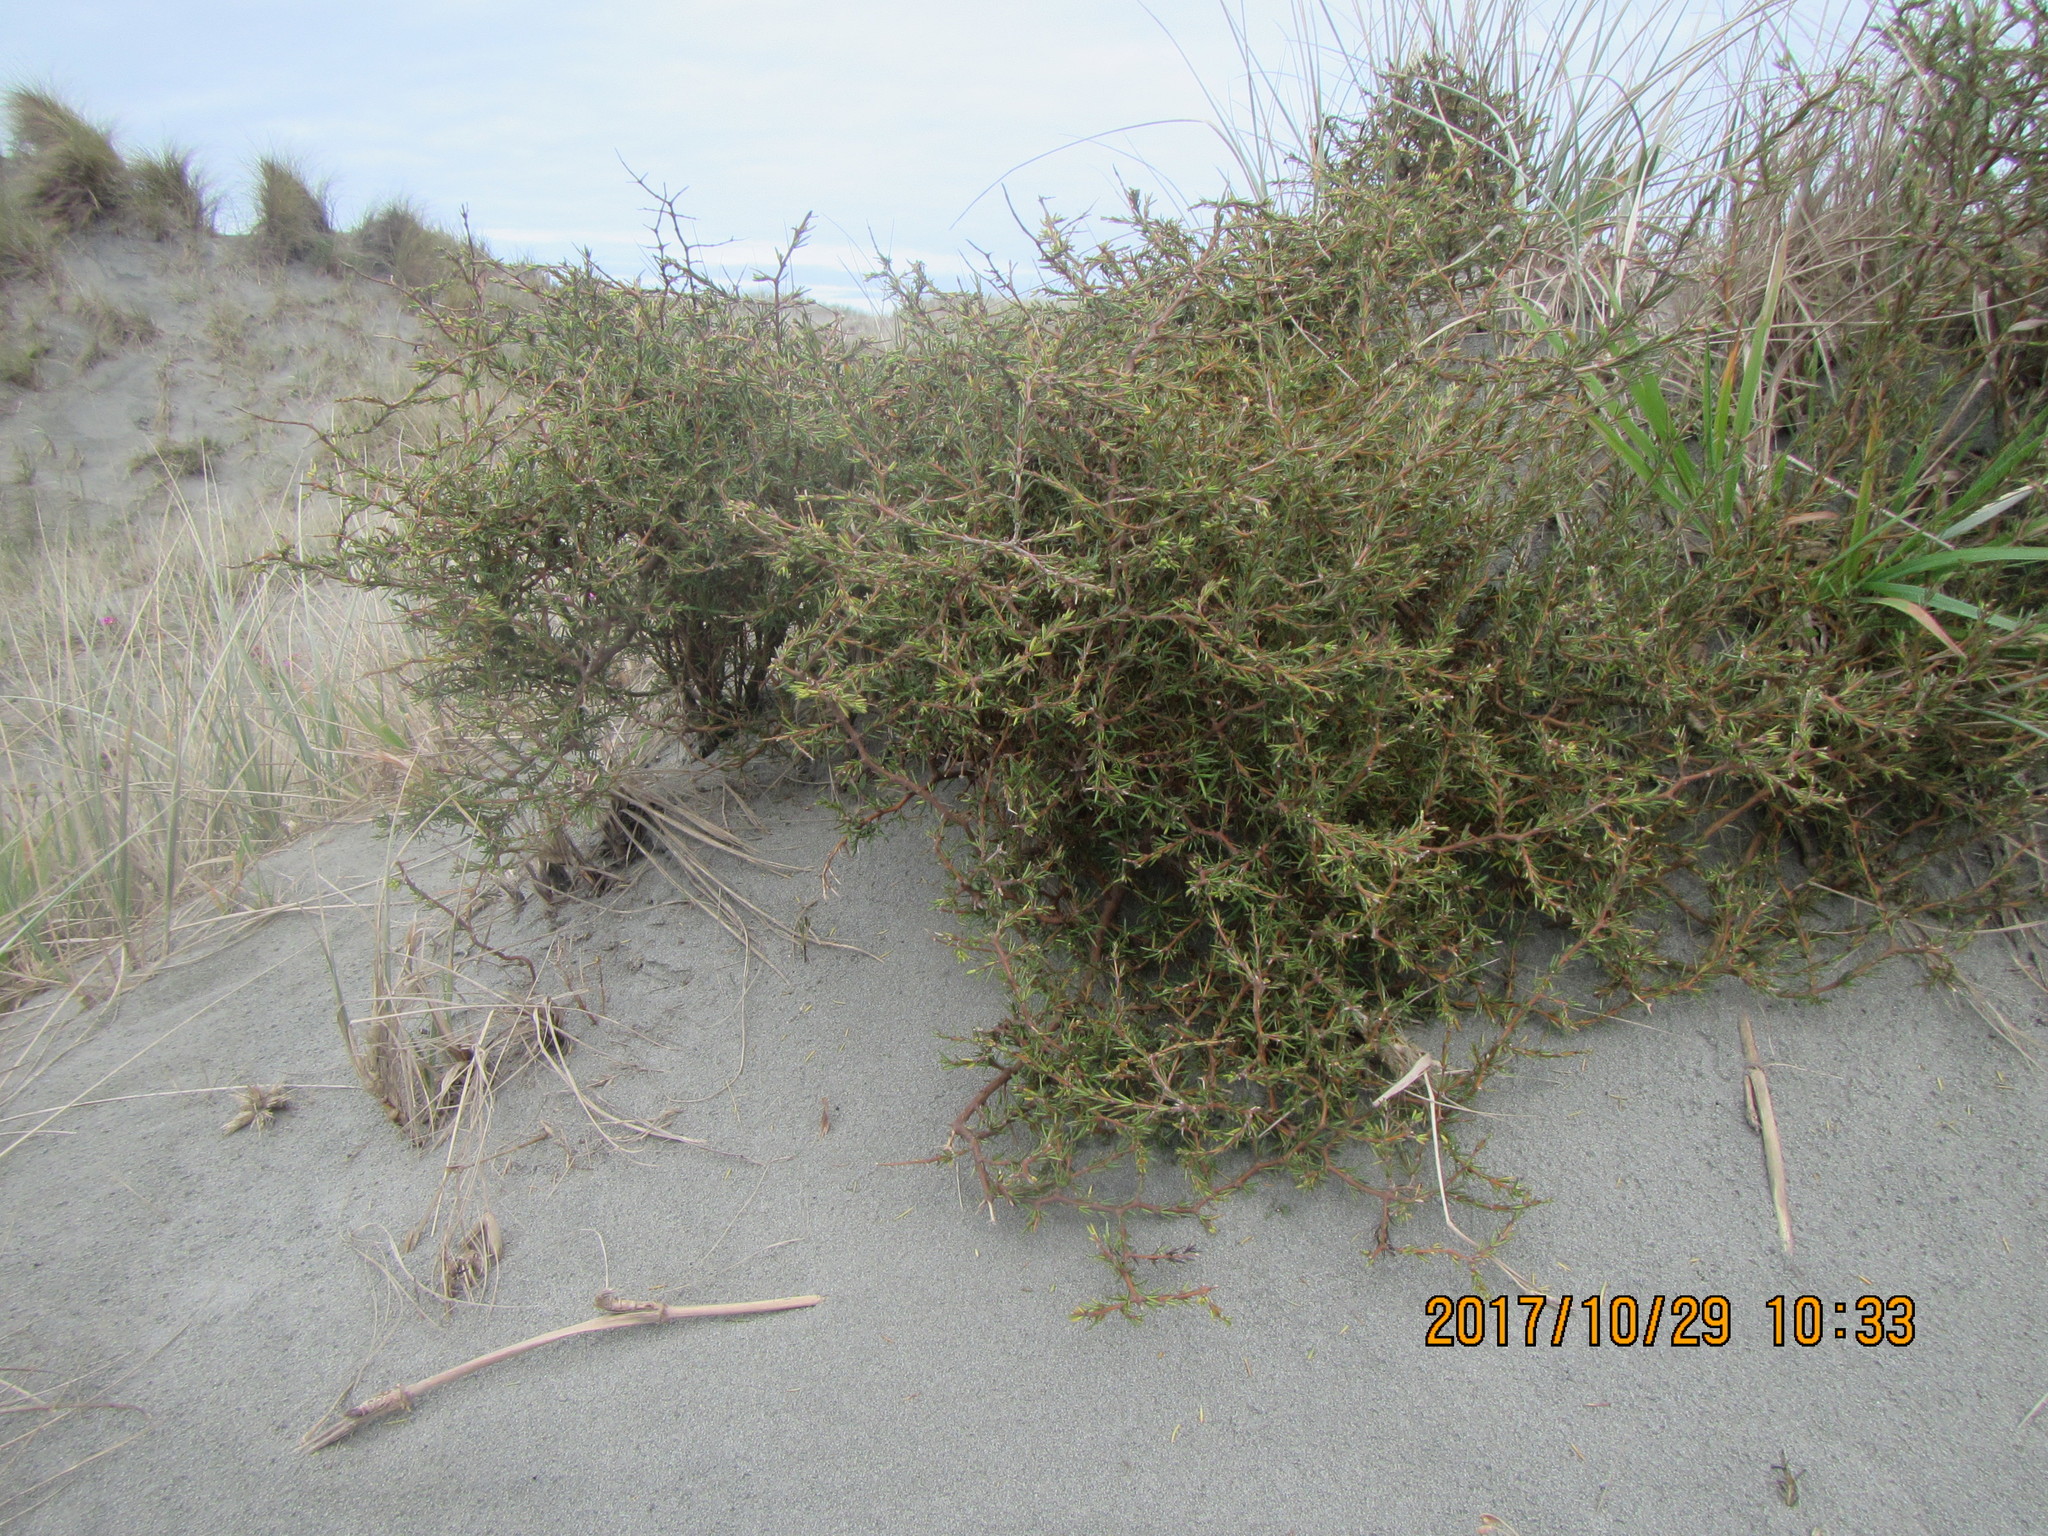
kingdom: Plantae
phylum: Tracheophyta
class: Magnoliopsida
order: Gentianales
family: Rubiaceae
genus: Coprosma
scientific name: Coprosma acerosa
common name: Sand coprosma
